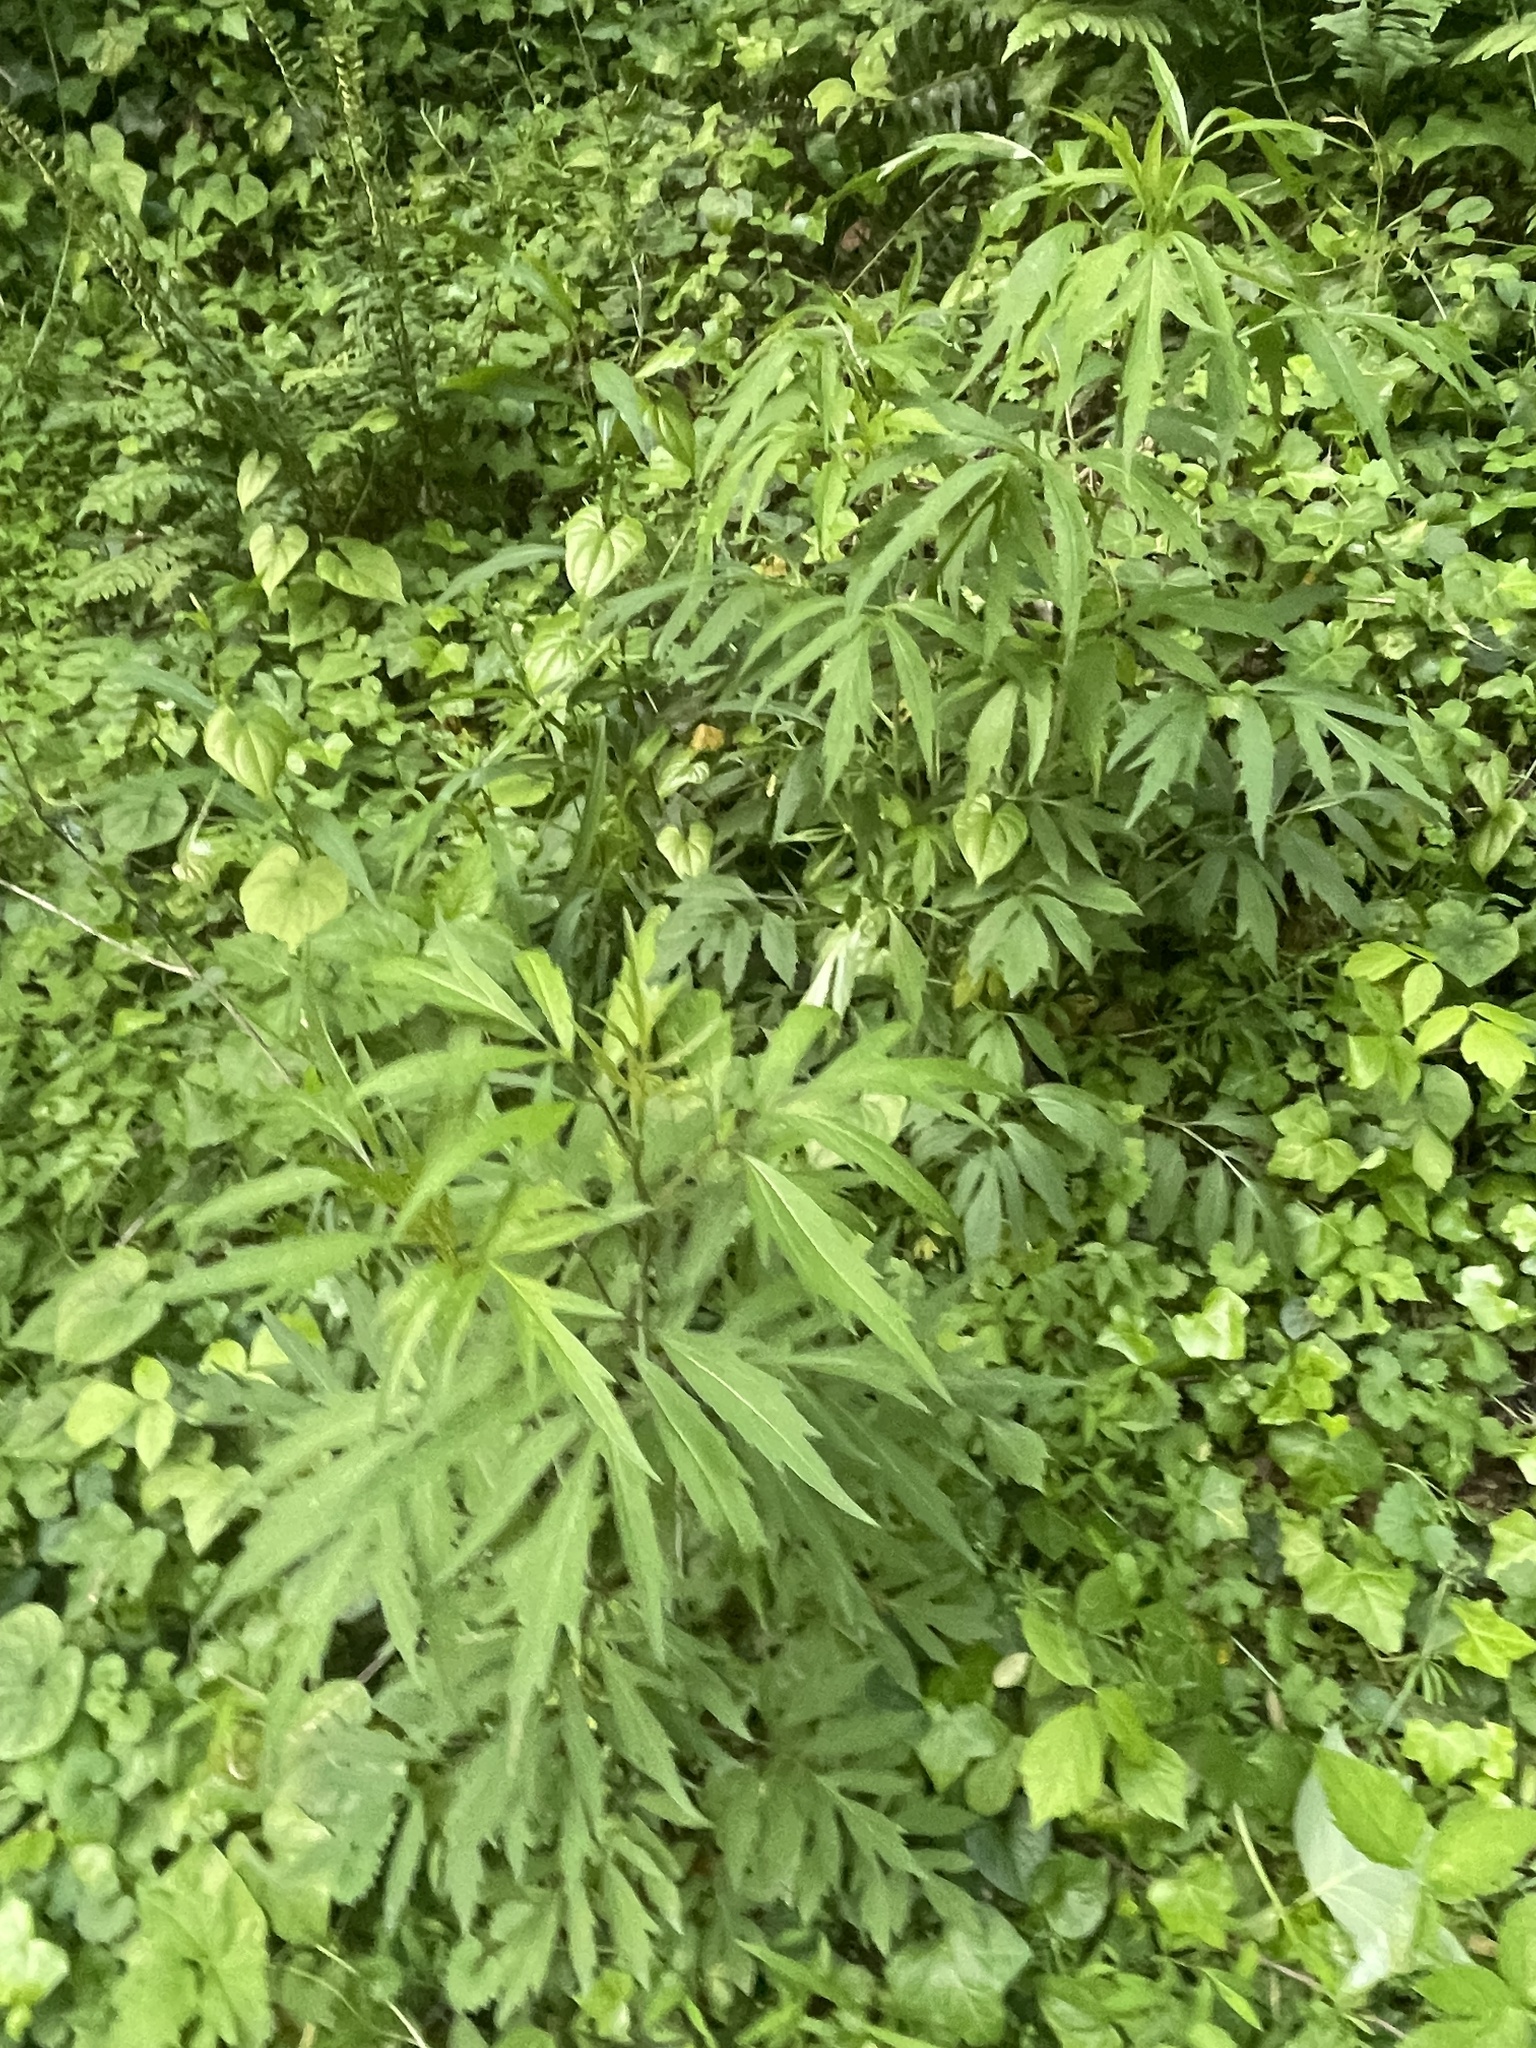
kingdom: Plantae
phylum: Tracheophyta
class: Magnoliopsida
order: Asterales
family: Asteraceae
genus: Rudbeckia
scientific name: Rudbeckia laciniata
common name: Coneflower
